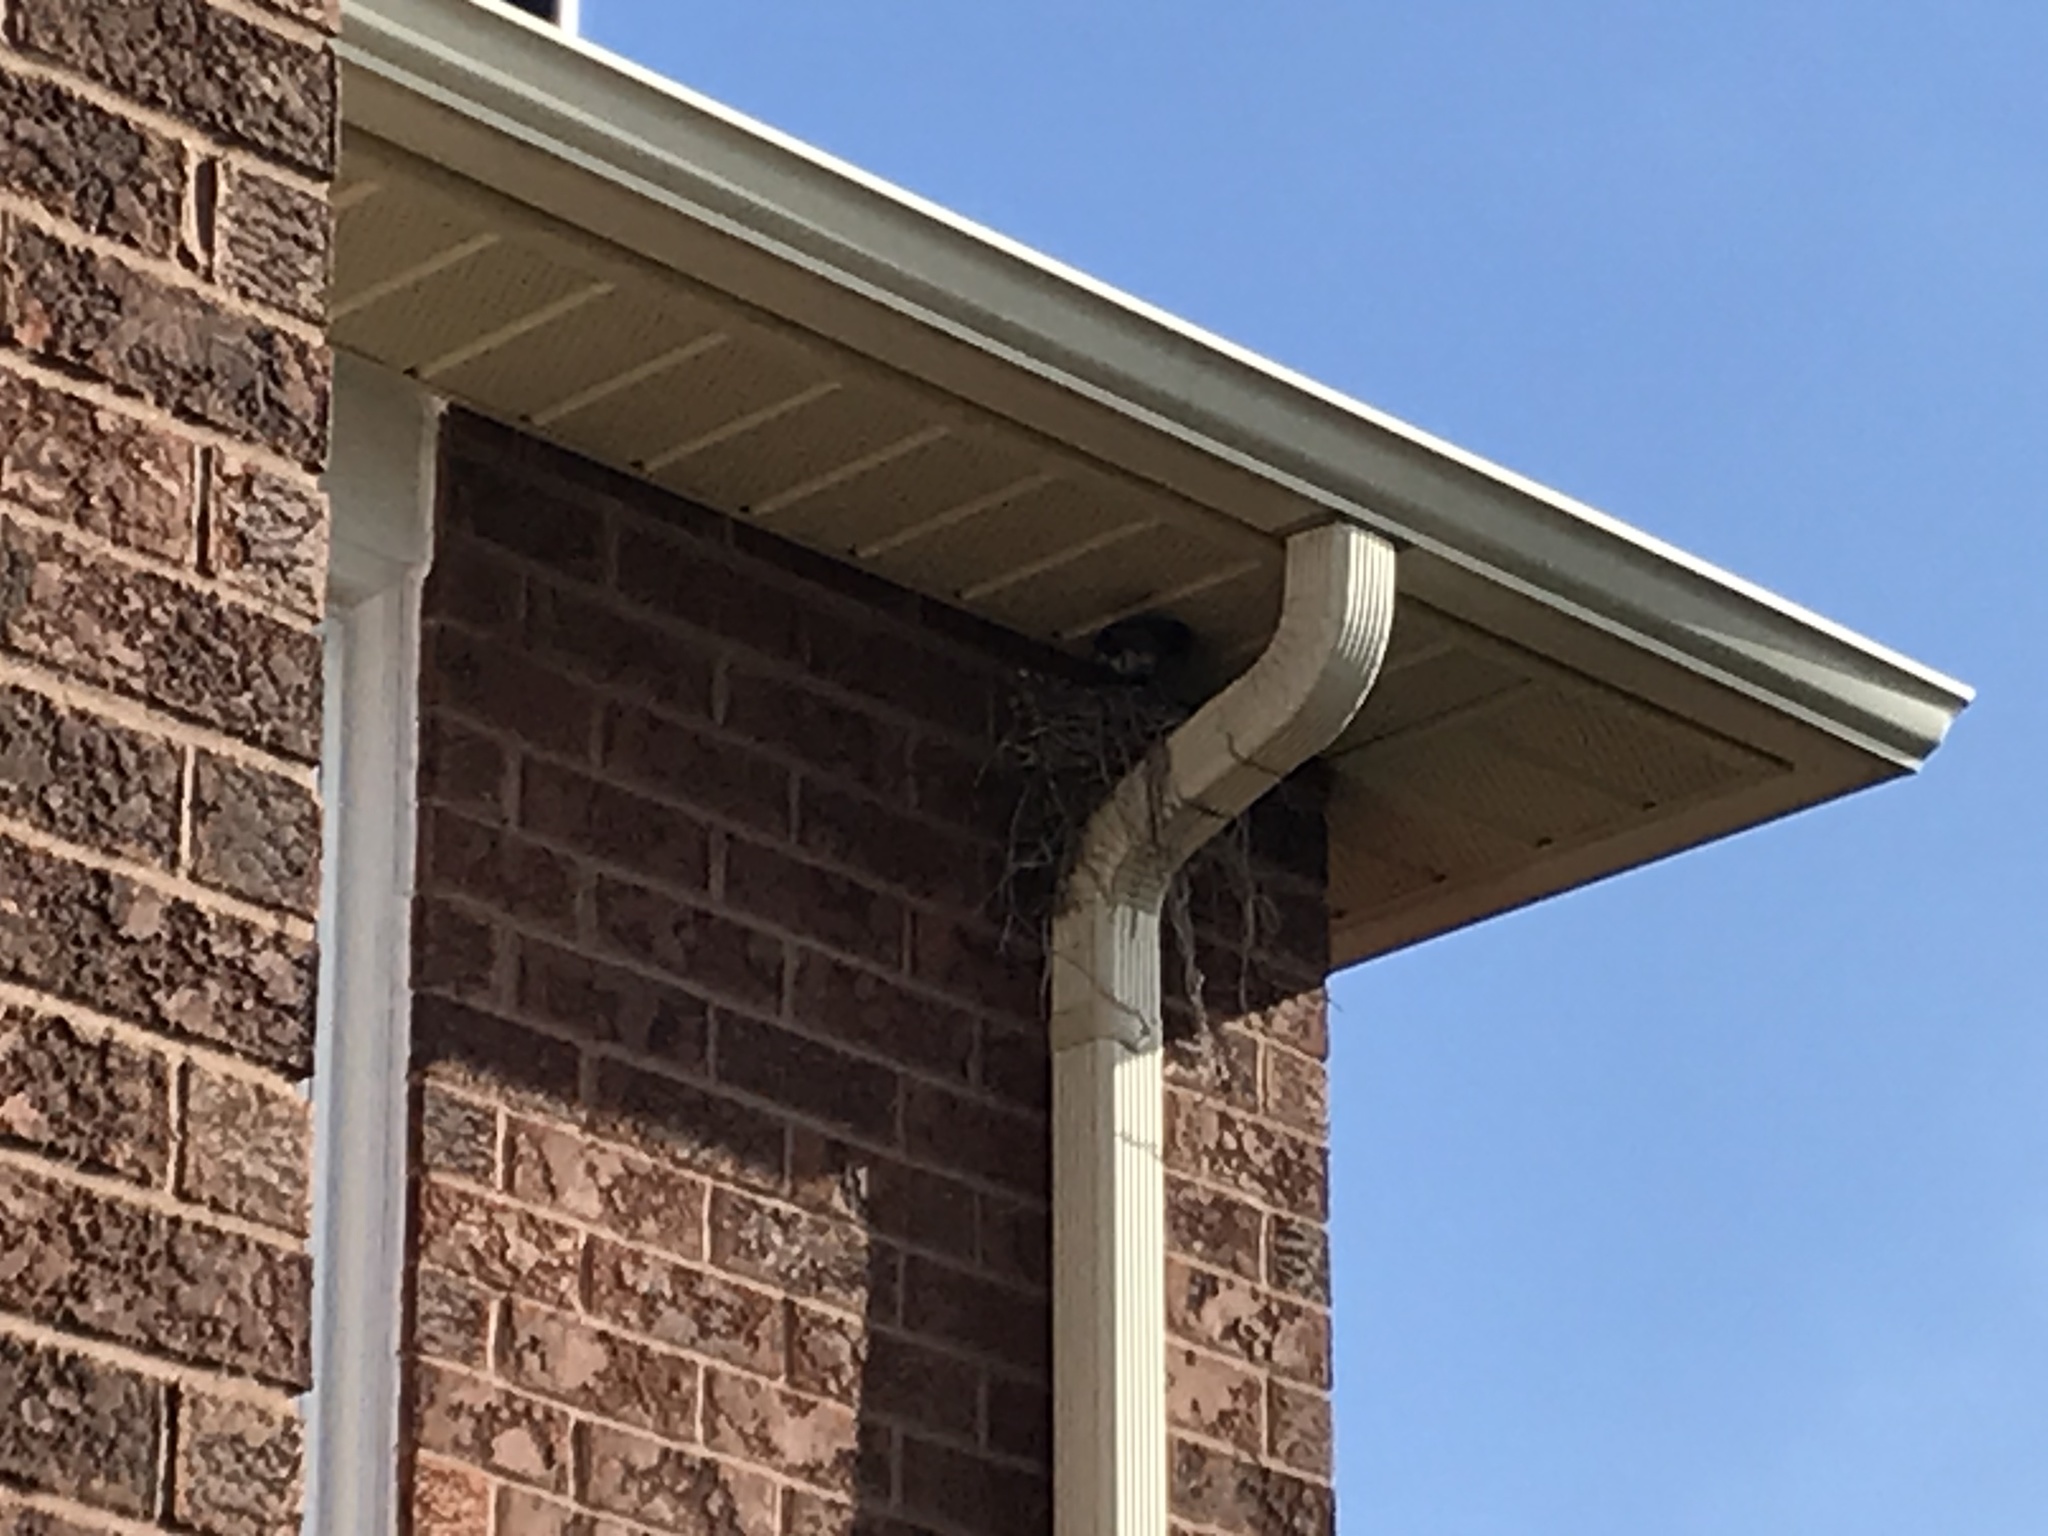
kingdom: Animalia
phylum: Chordata
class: Aves
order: Passeriformes
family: Turdidae
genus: Turdus
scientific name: Turdus migratorius
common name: American robin
